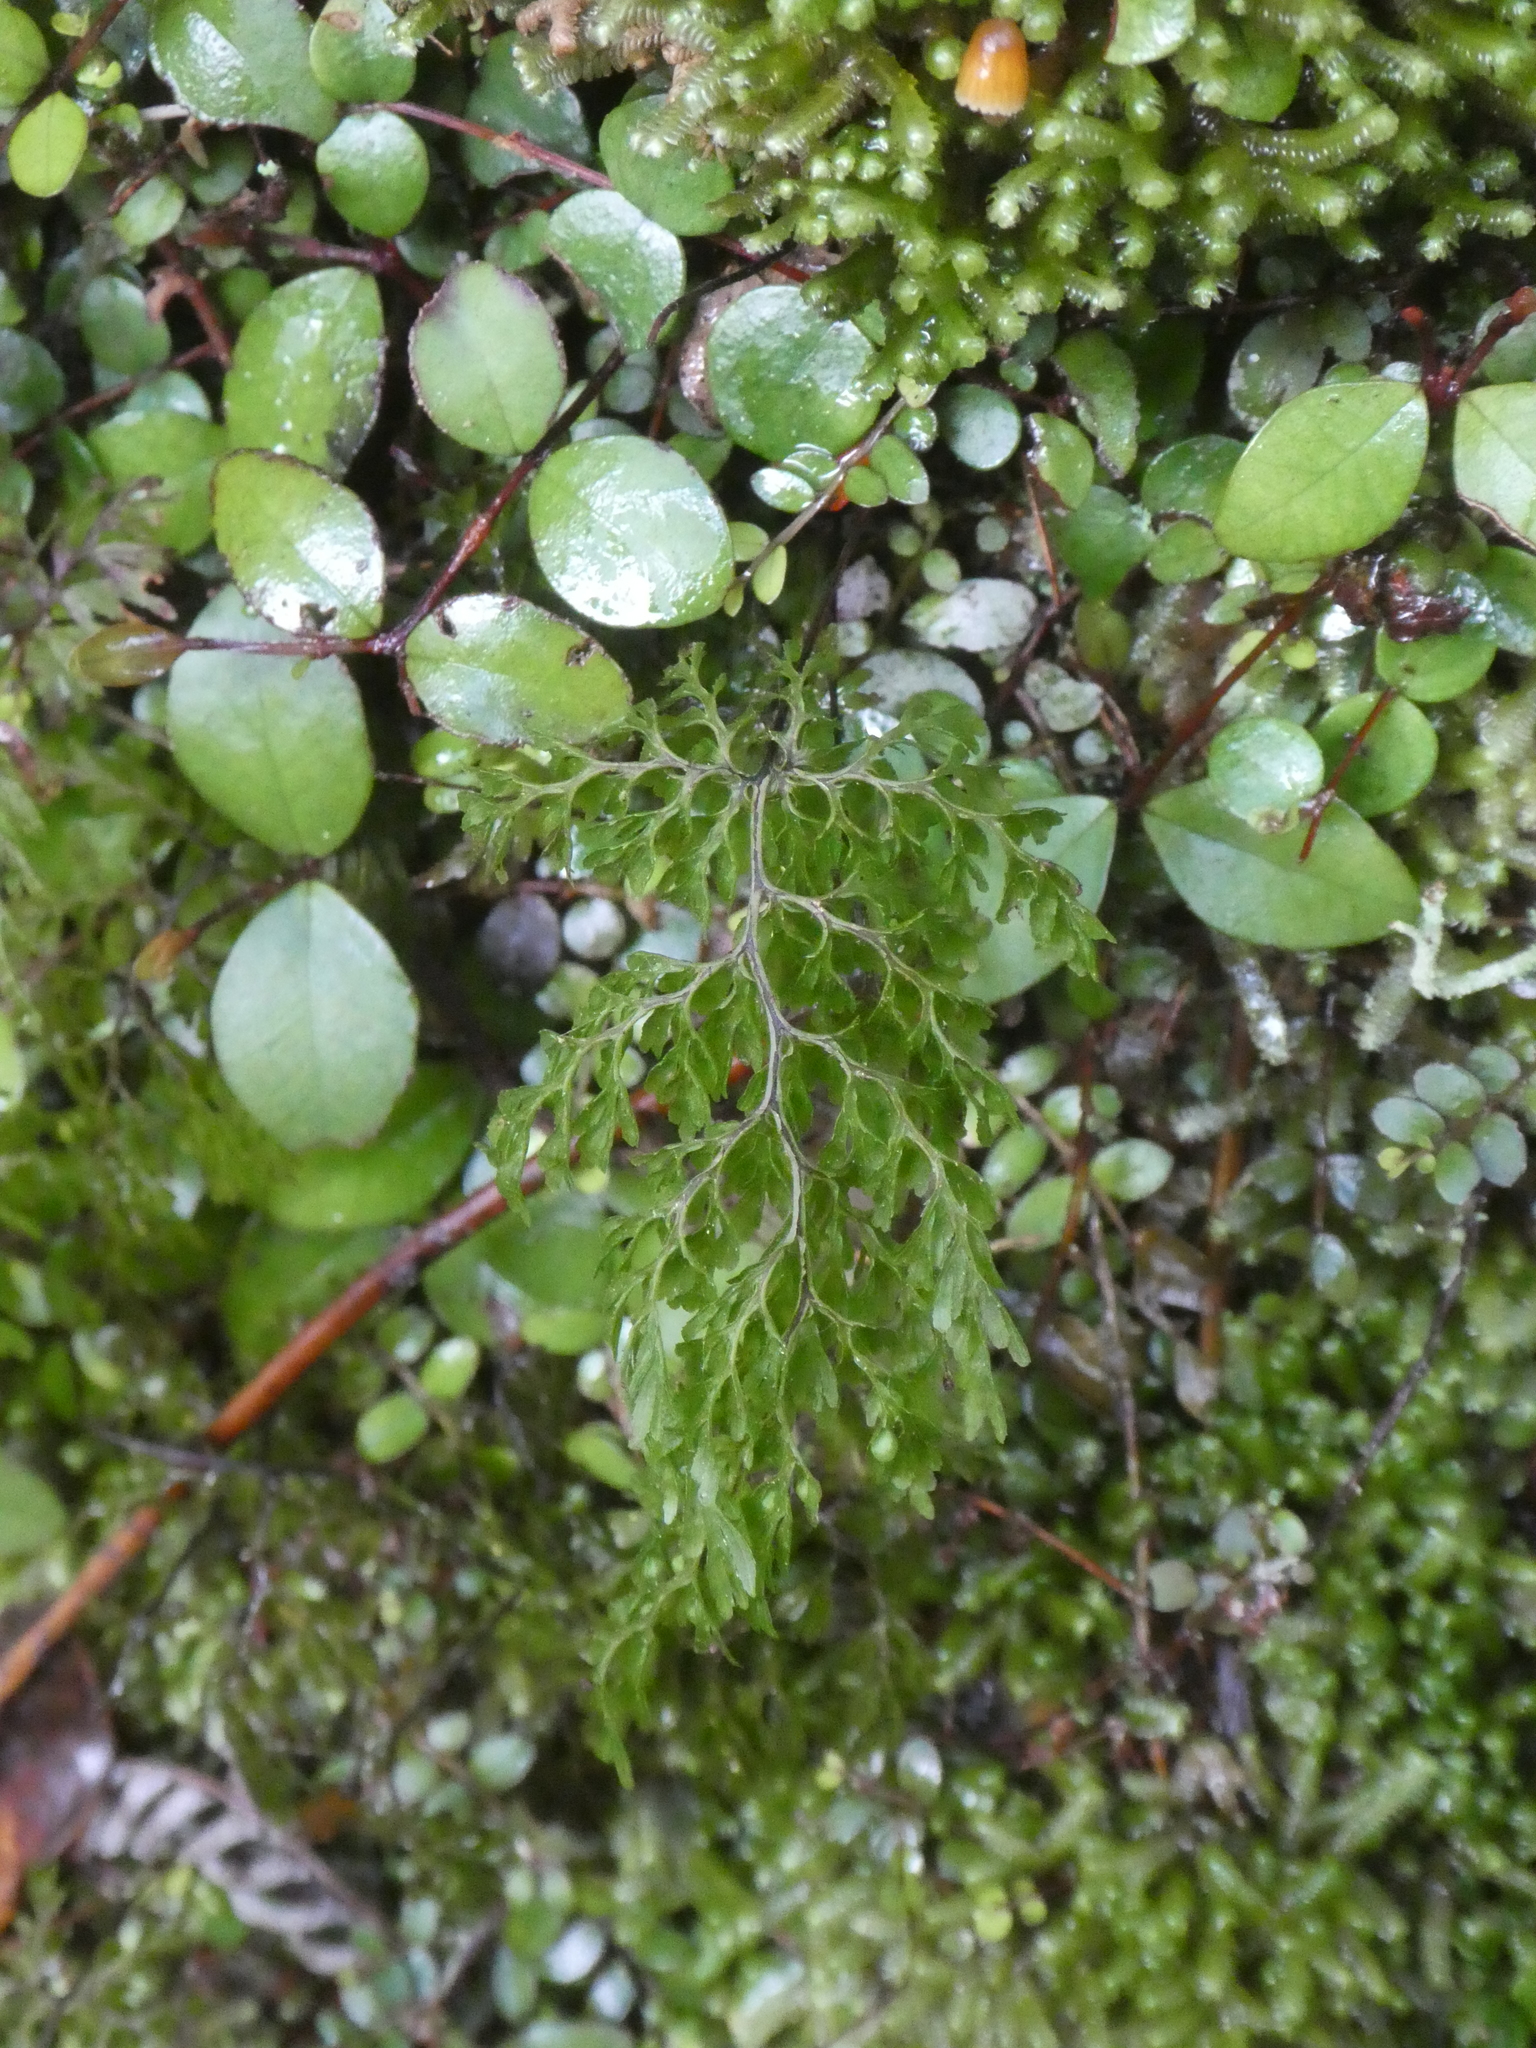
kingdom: Plantae
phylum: Tracheophyta
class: Polypodiopsida
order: Hymenophyllales
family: Hymenophyllaceae
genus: Hymenophyllum
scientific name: Hymenophyllum demissum
